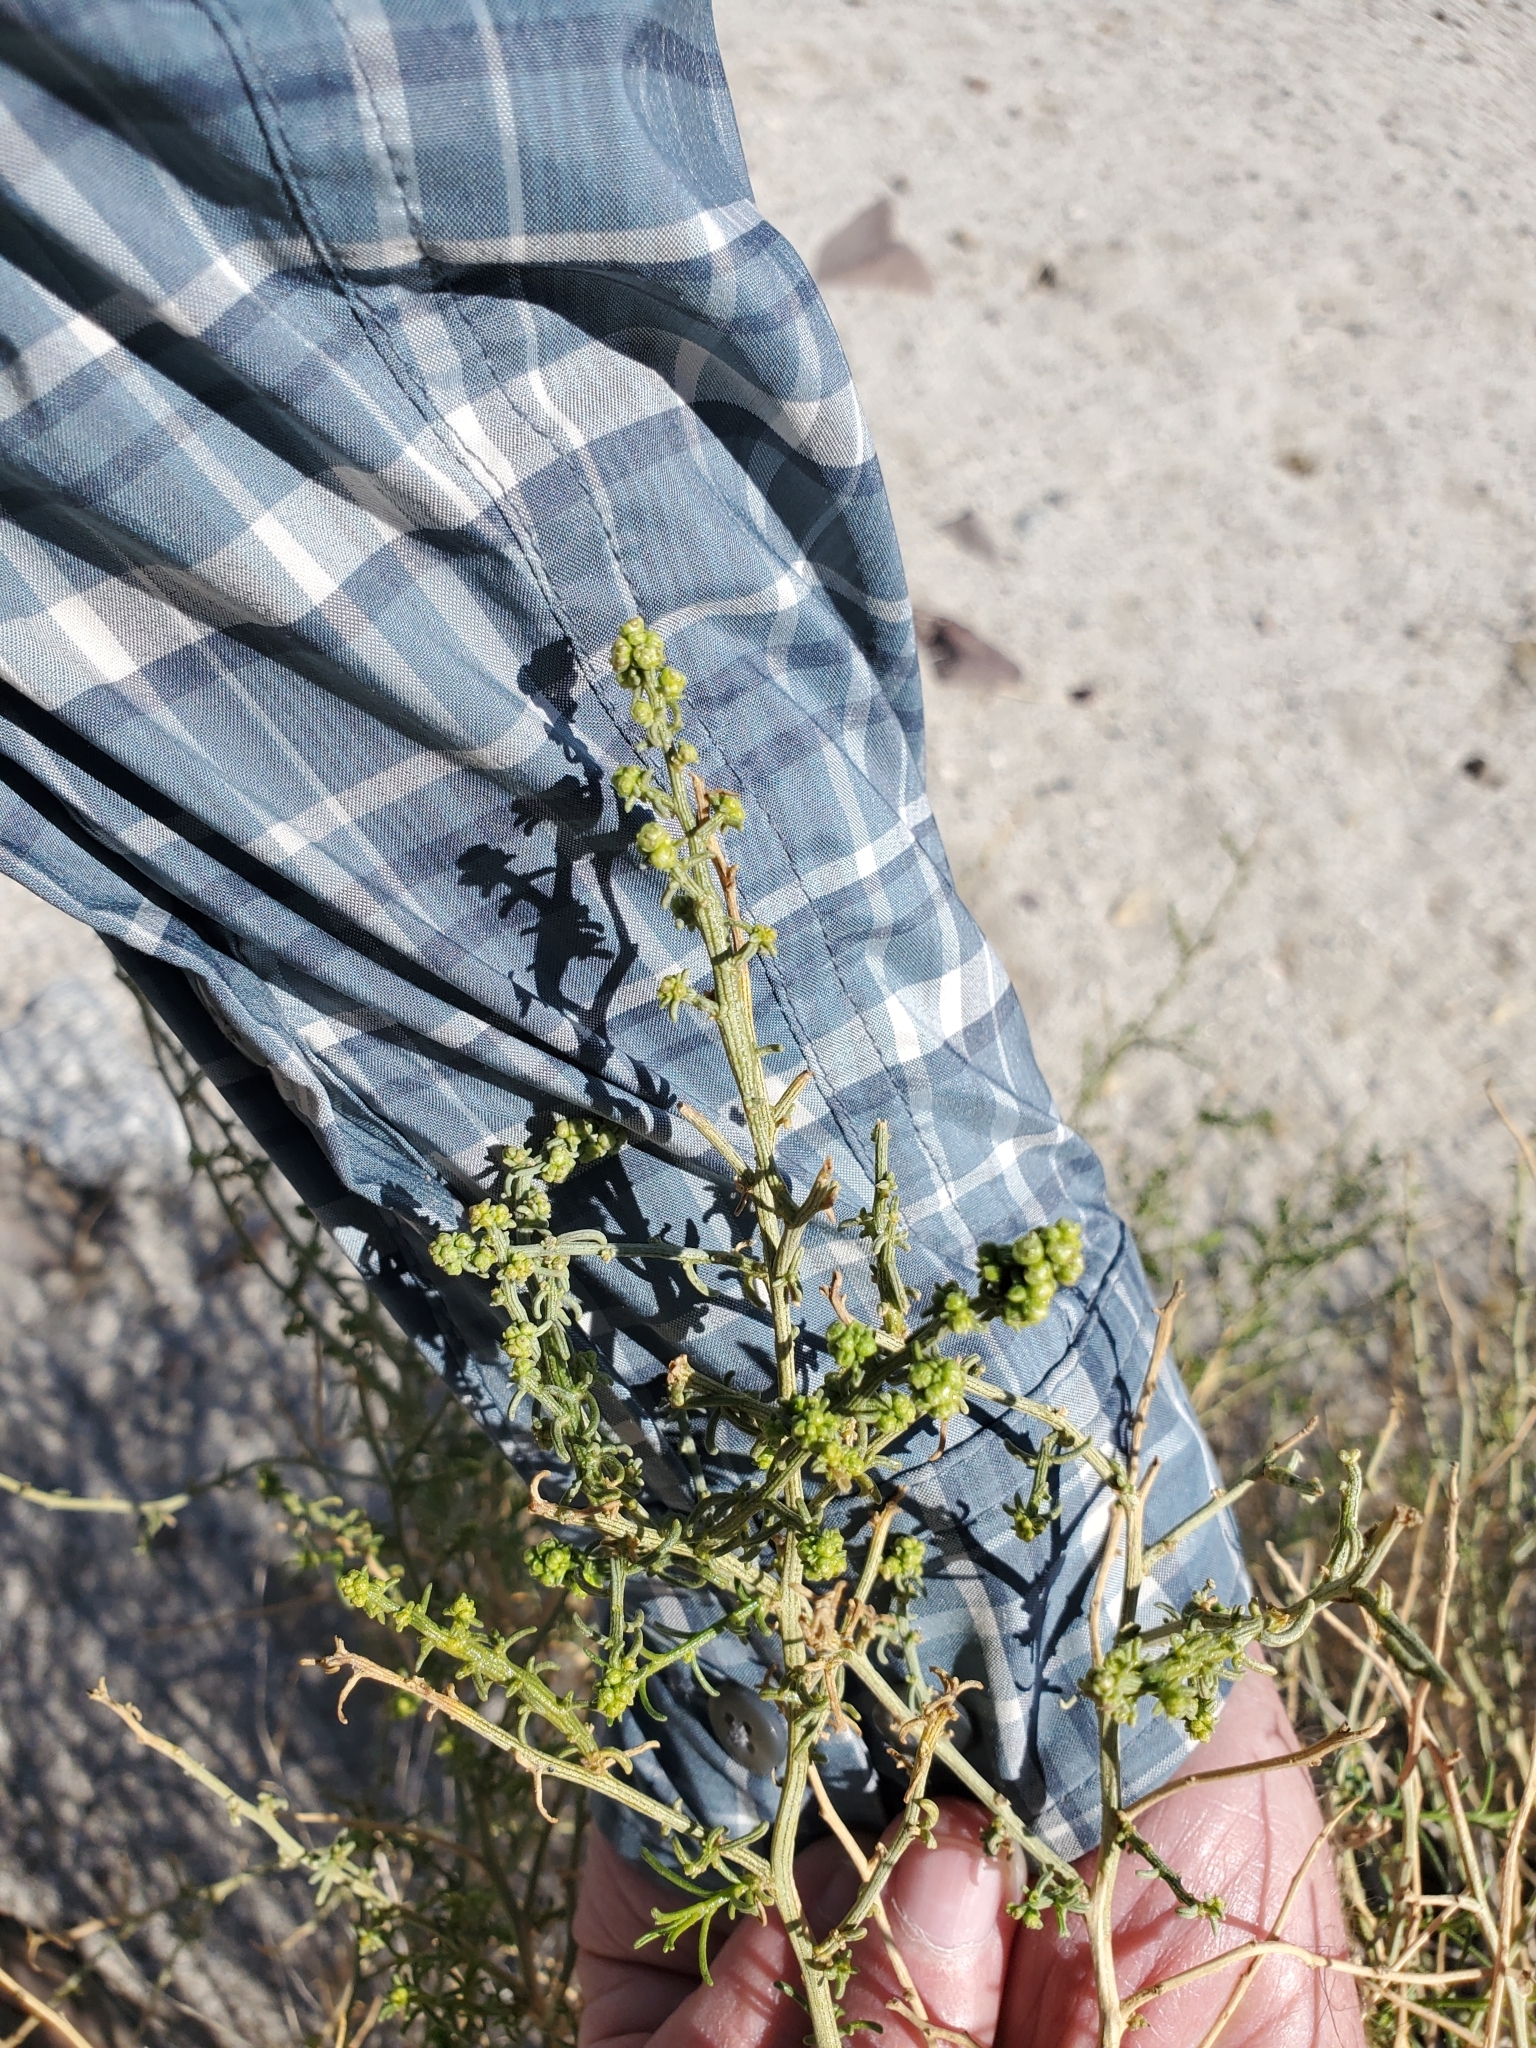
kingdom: Plantae
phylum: Tracheophyta
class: Magnoliopsida
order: Asterales
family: Asteraceae
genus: Ambrosia
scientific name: Ambrosia salsola
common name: Burrobrush
